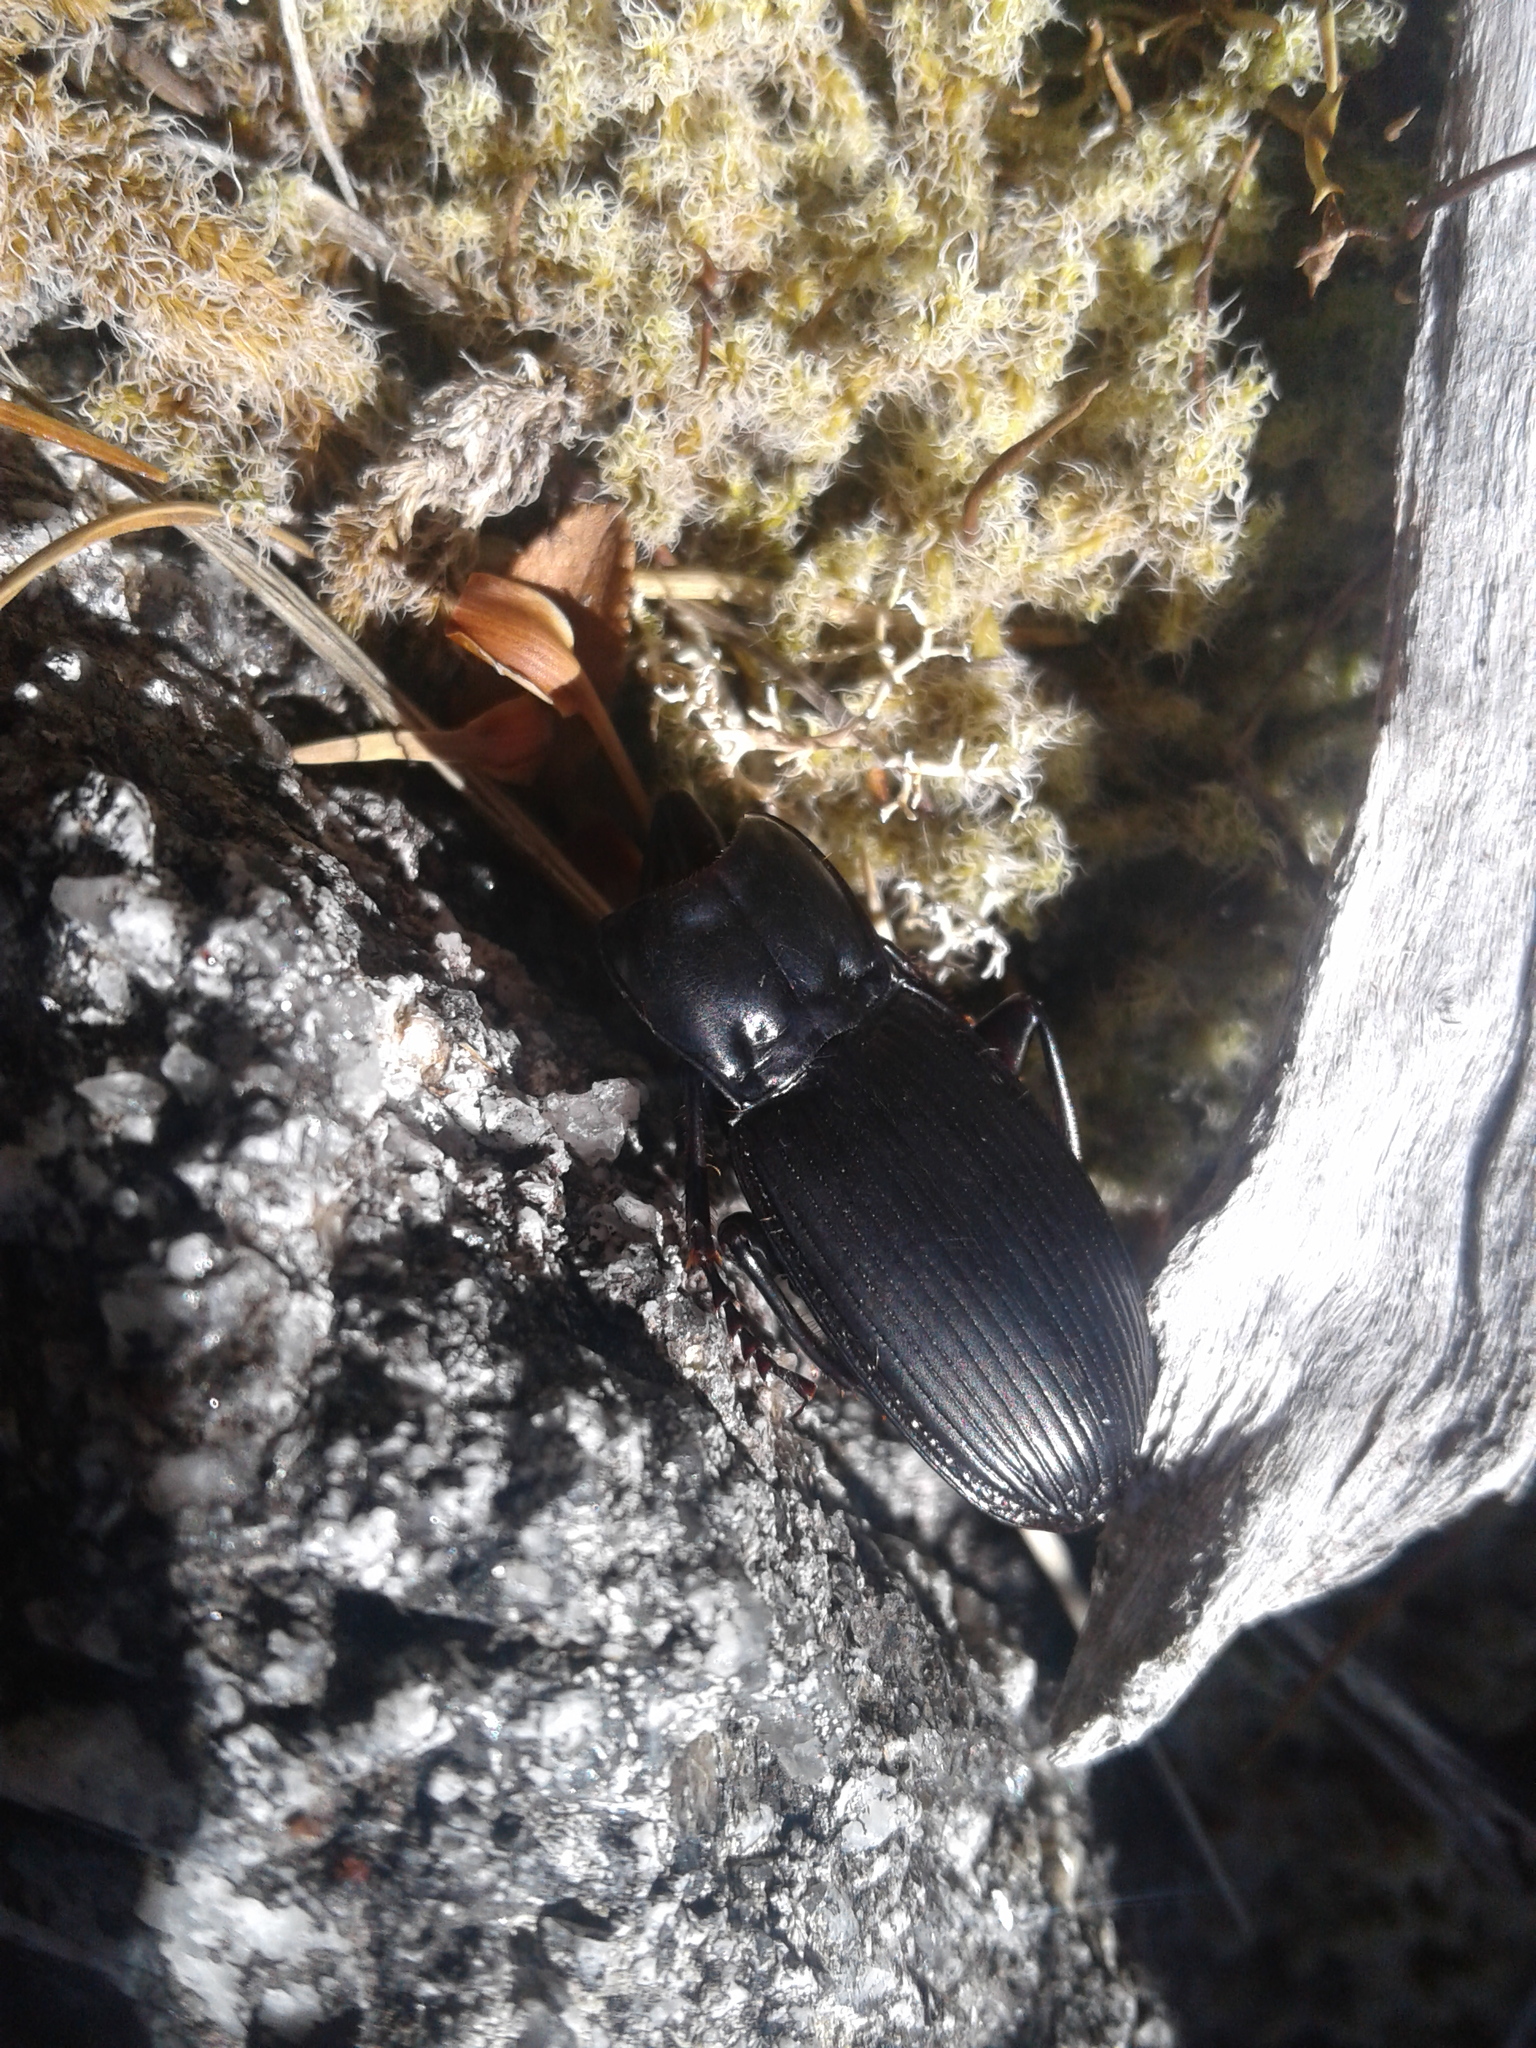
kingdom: Animalia
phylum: Arthropoda
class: Insecta
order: Coleoptera
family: Carabidae
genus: Plocamostethus
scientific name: Plocamostethus planiusculus
